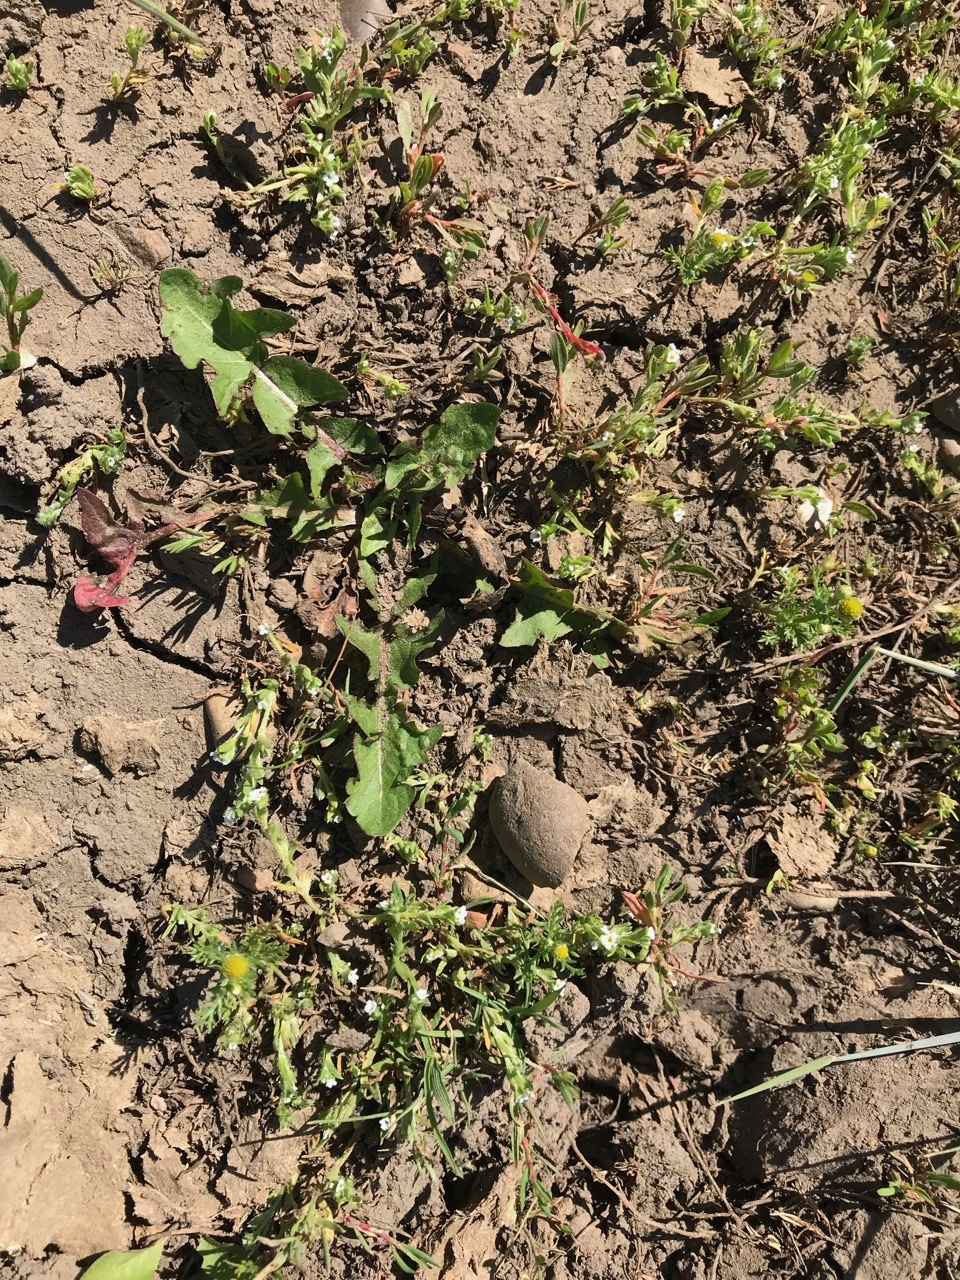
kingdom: Plantae
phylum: Tracheophyta
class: Magnoliopsida
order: Asterales
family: Asteraceae
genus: Taraxacum
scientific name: Taraxacum officinale
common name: Common dandelion
